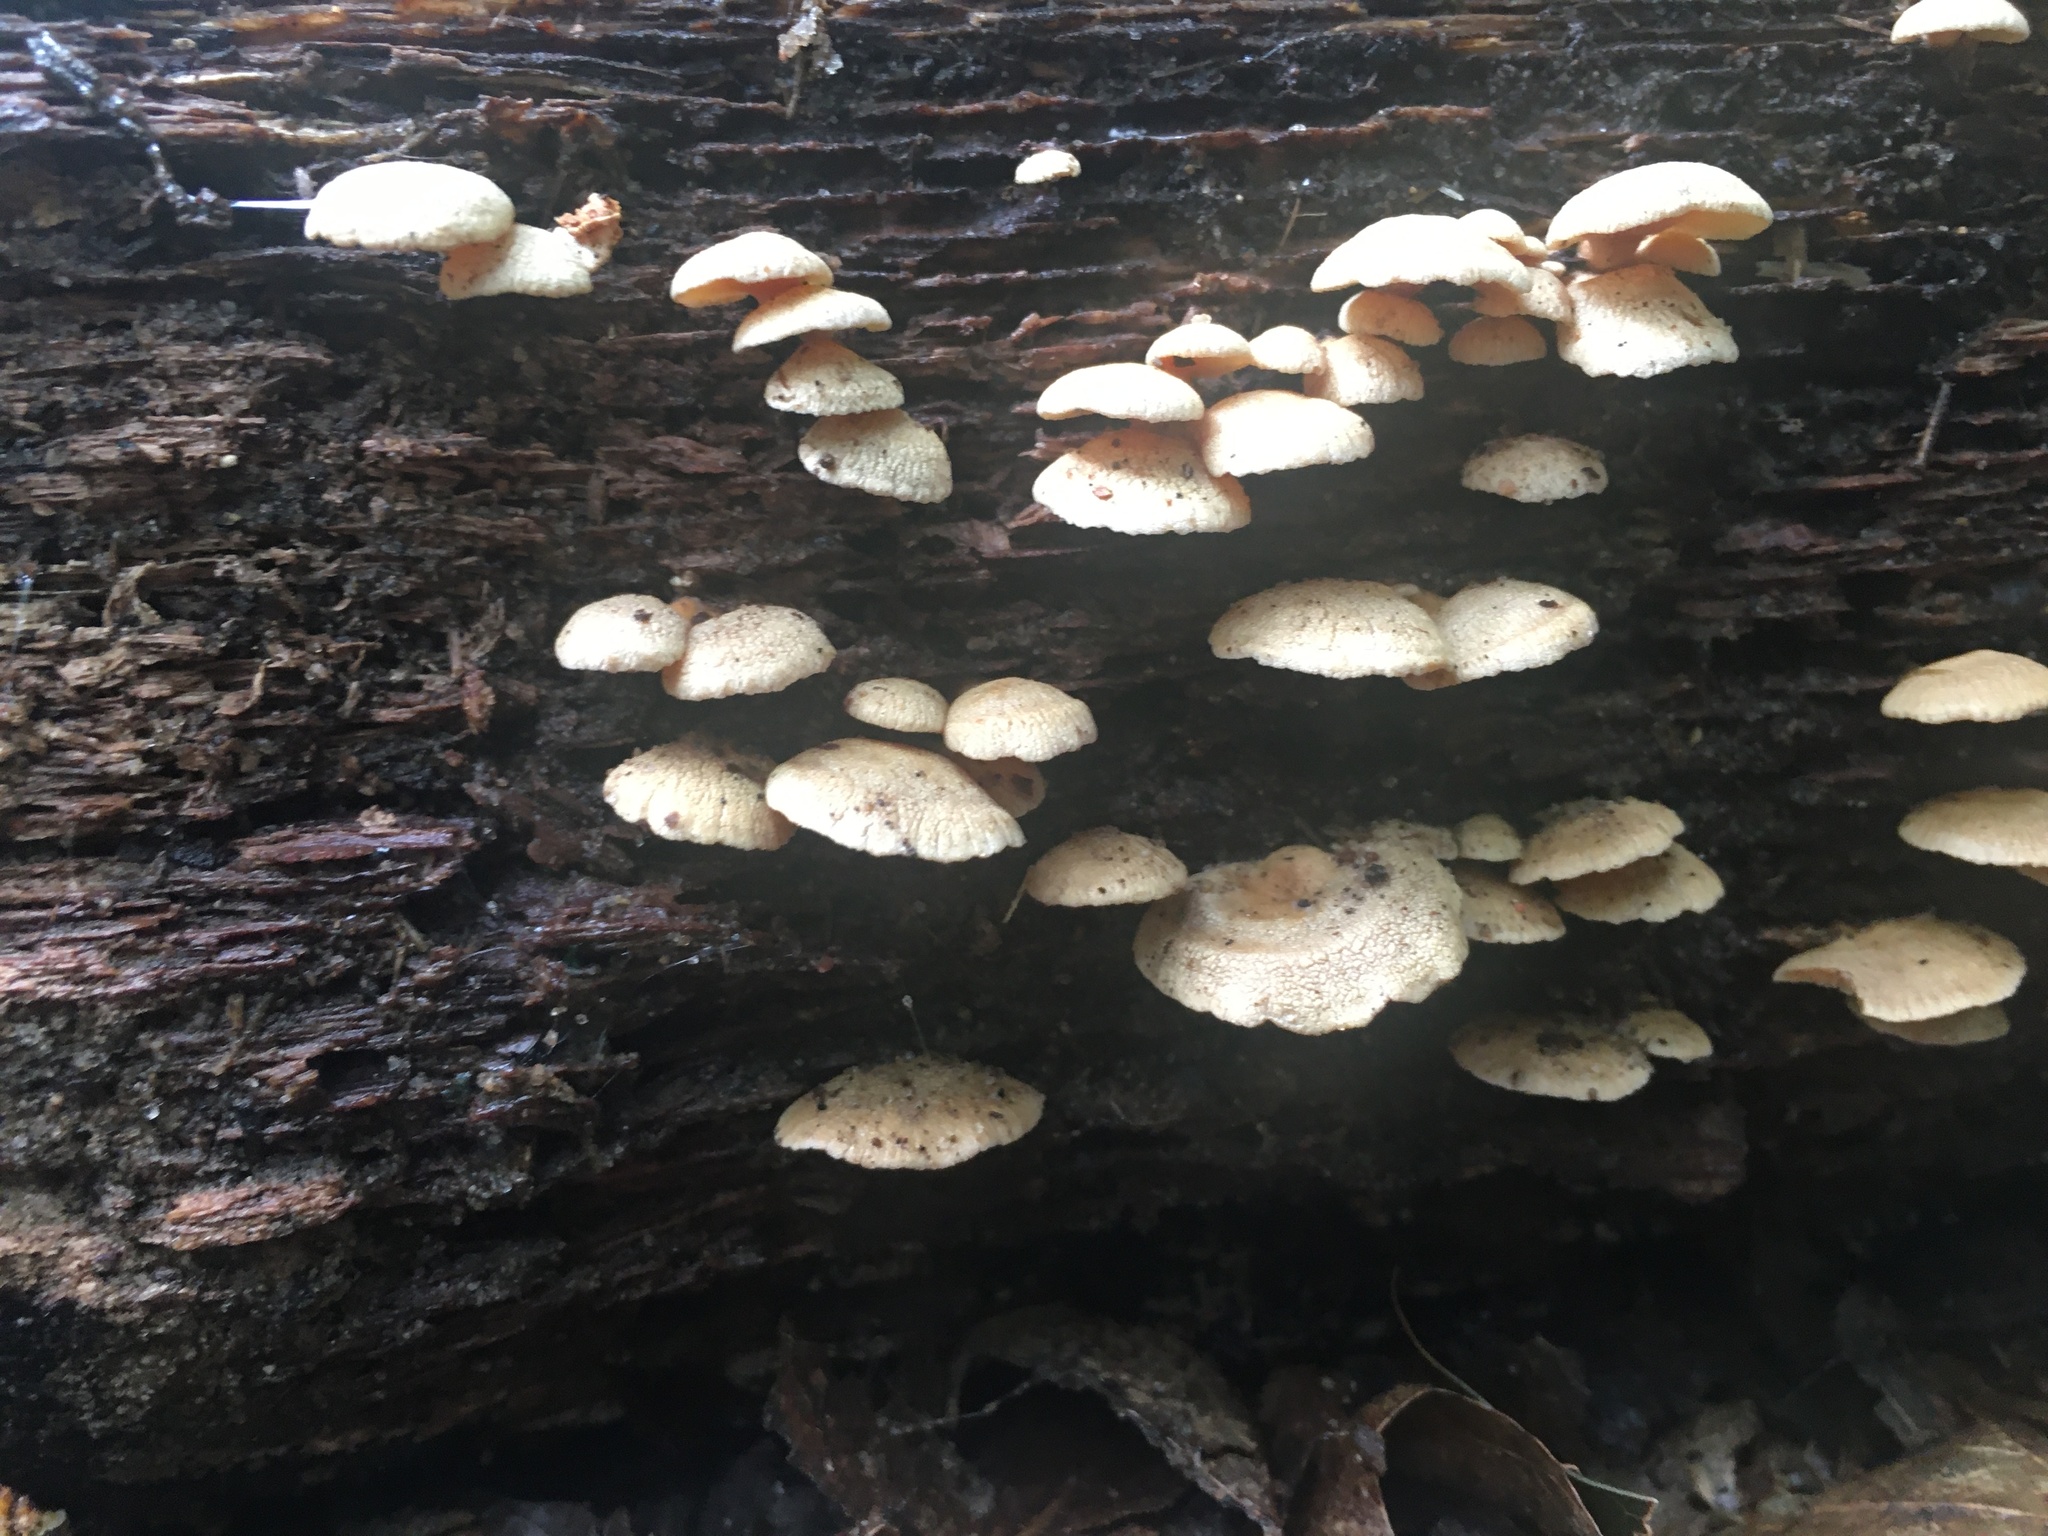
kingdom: Fungi
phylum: Basidiomycota
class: Agaricomycetes
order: Agaricales
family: Mycenaceae
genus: Panellus
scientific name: Panellus stipticus
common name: Bitter oysterling
